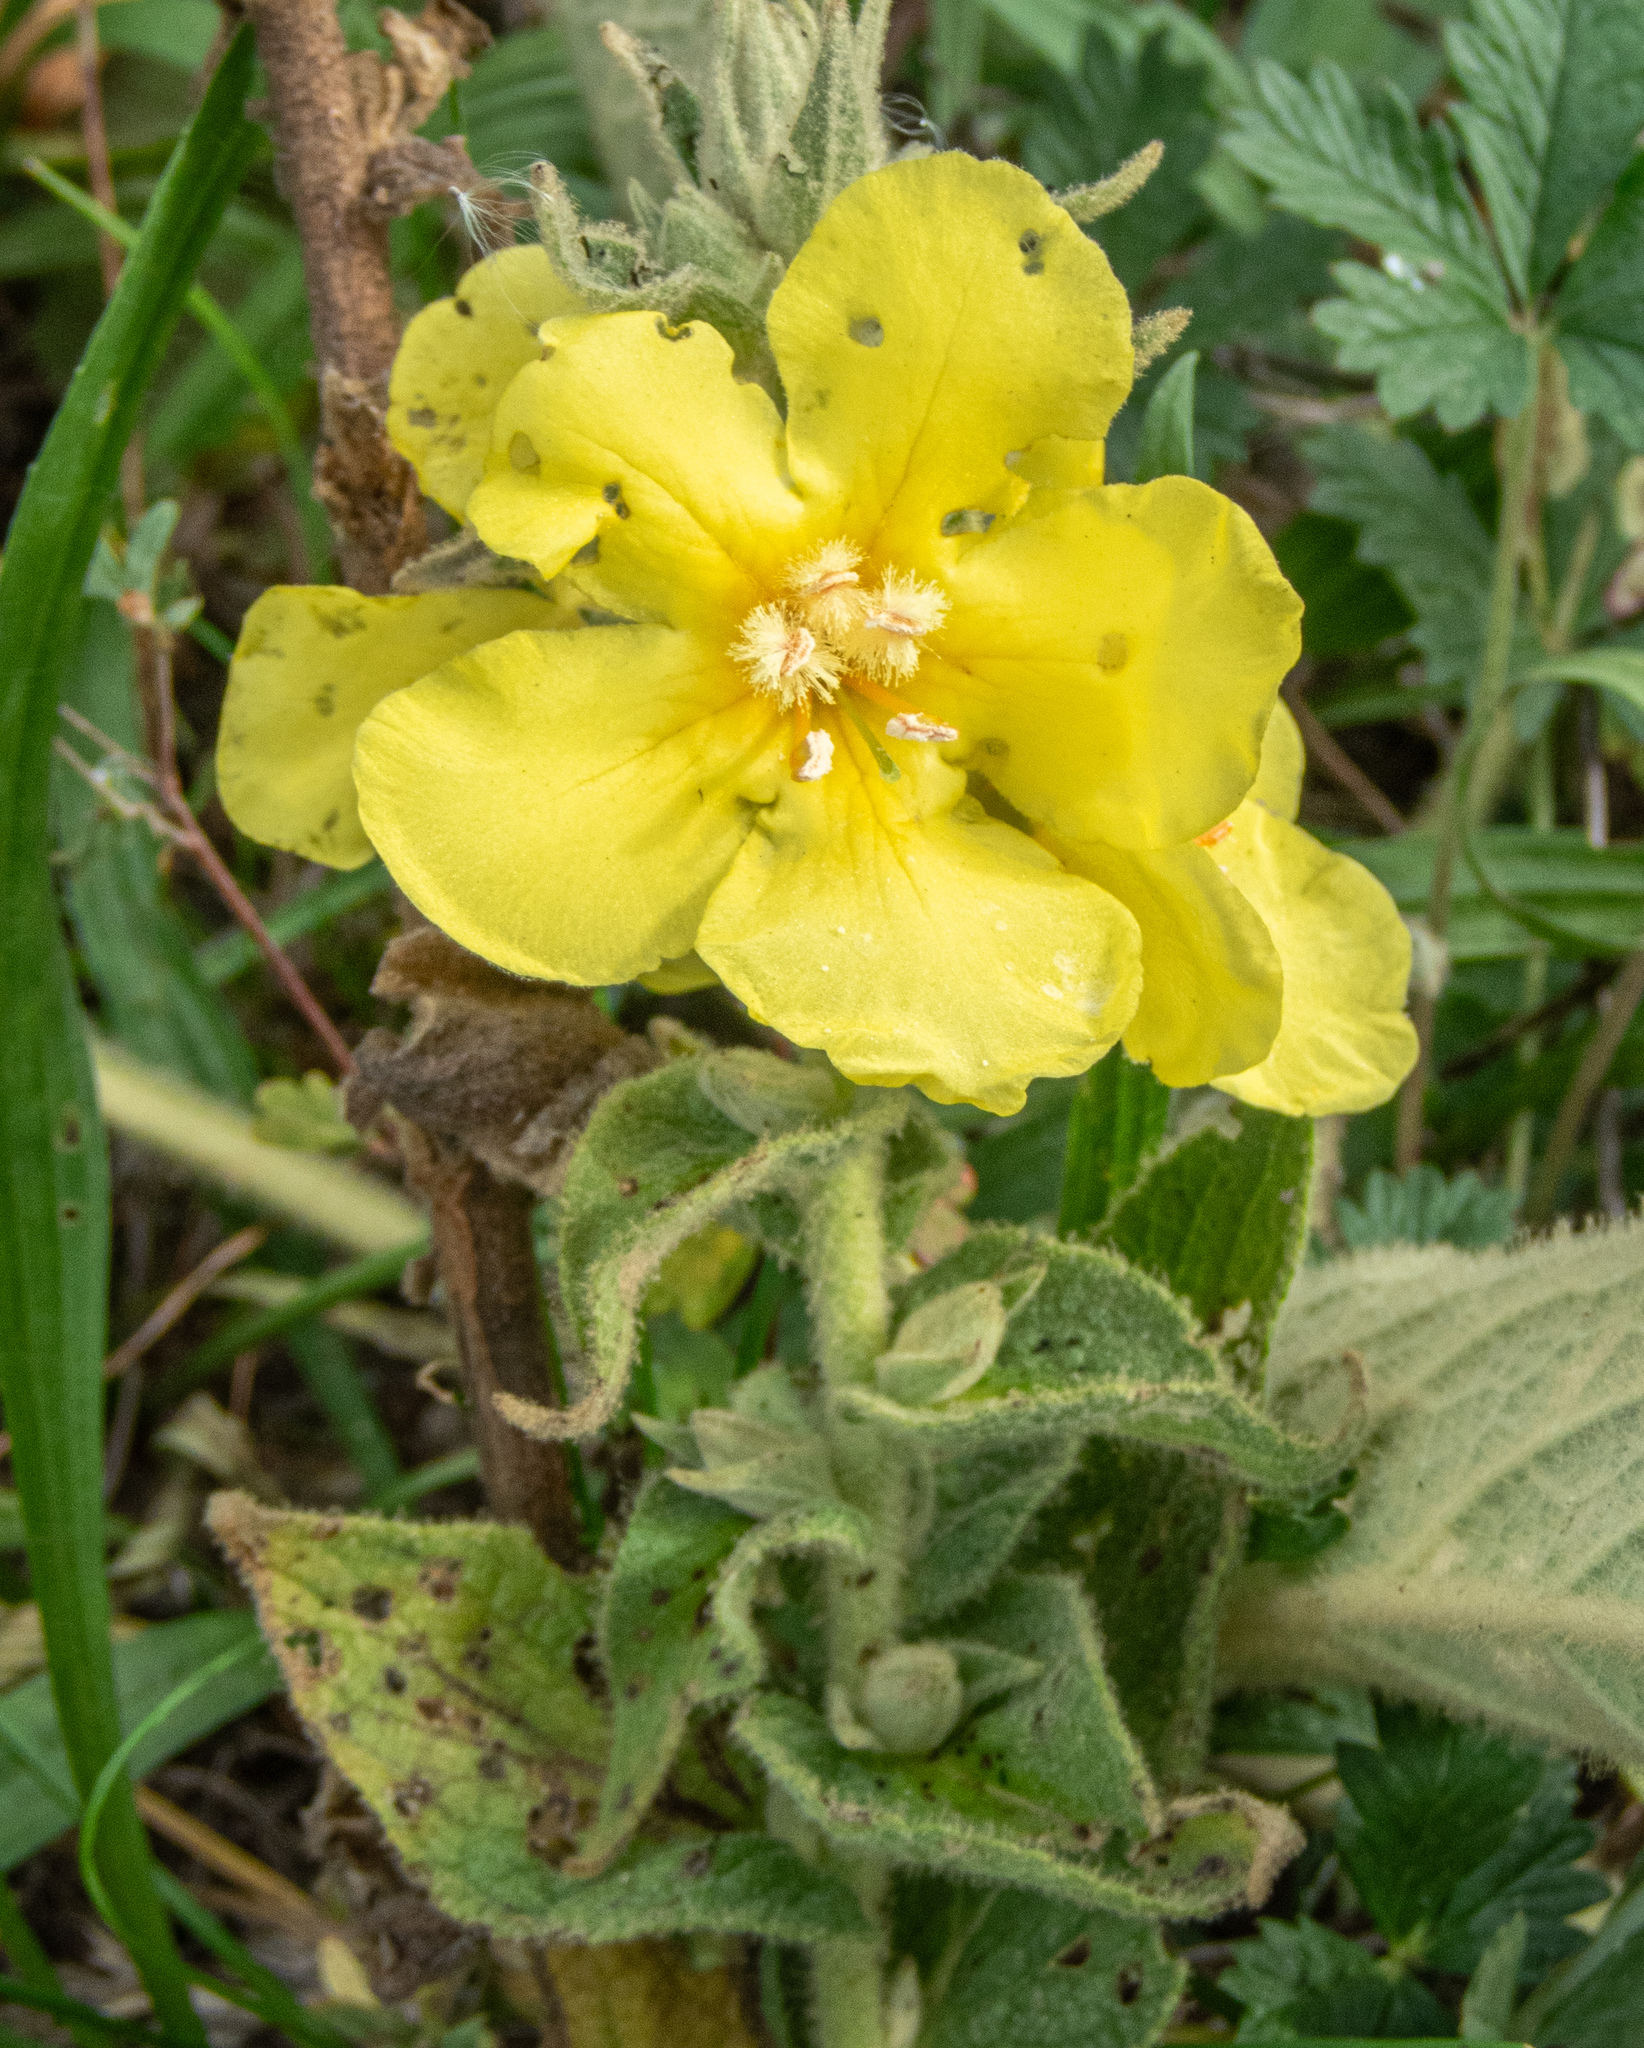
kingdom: Plantae
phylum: Tracheophyta
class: Magnoliopsida
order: Lamiales
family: Scrophulariaceae
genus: Verbascum
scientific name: Verbascum phlomoides
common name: Orange mullein
